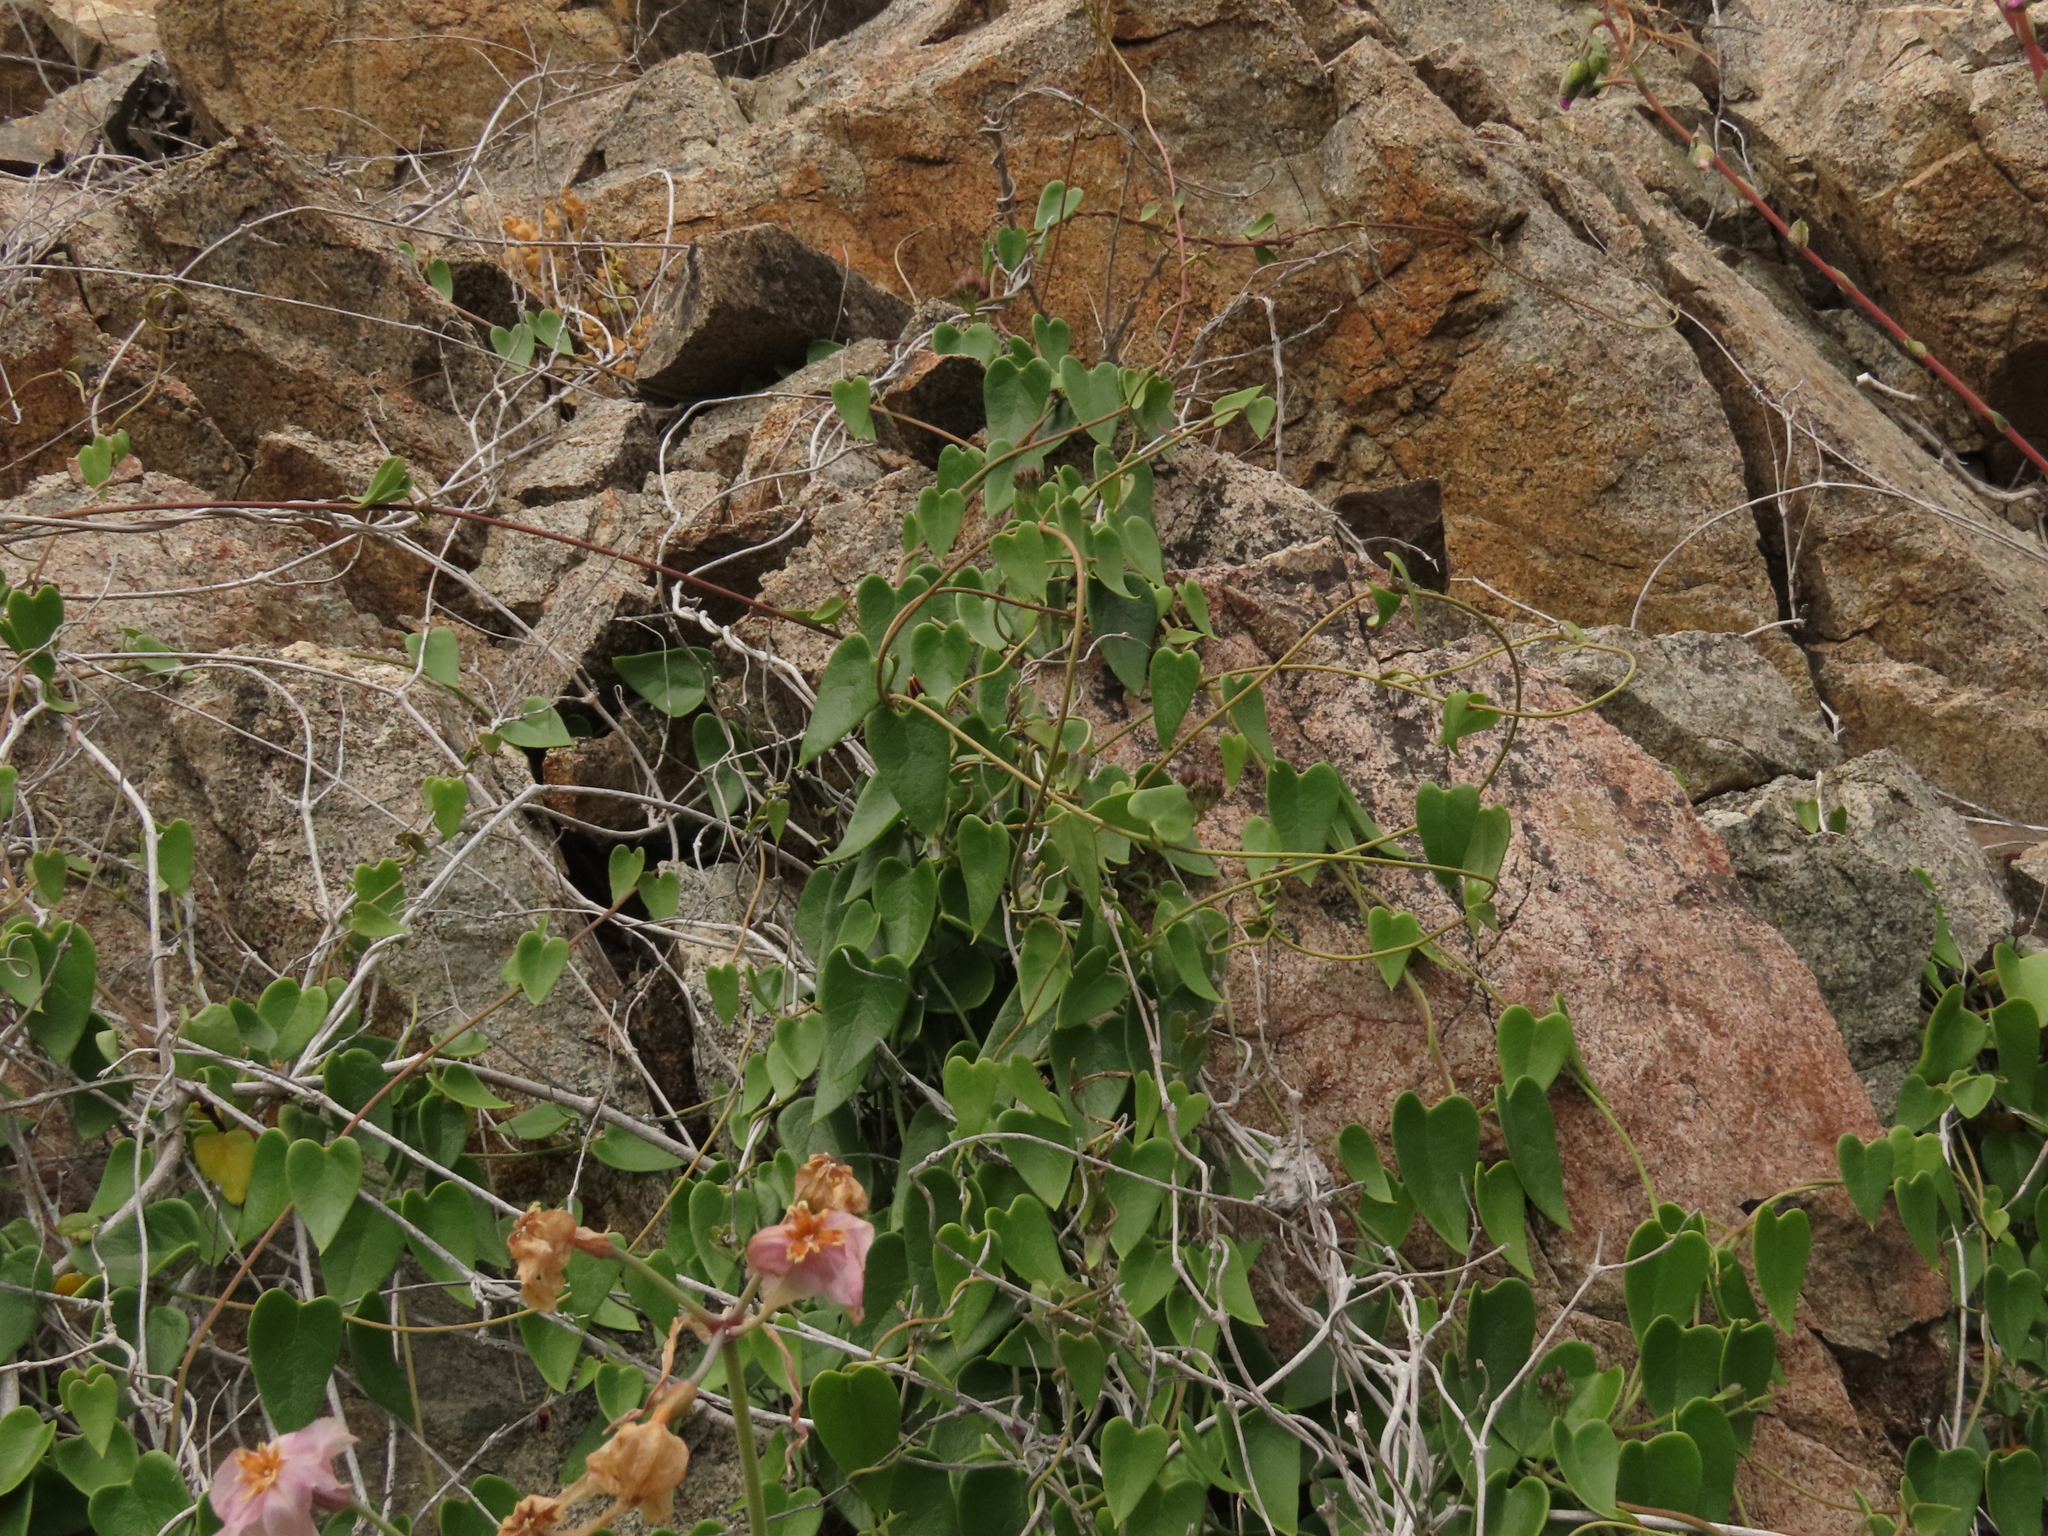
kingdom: Plantae
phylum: Tracheophyta
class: Magnoliopsida
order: Gentianales
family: Apocynaceae
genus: Diplolepis
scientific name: Diplolepis boerhaviifolia
